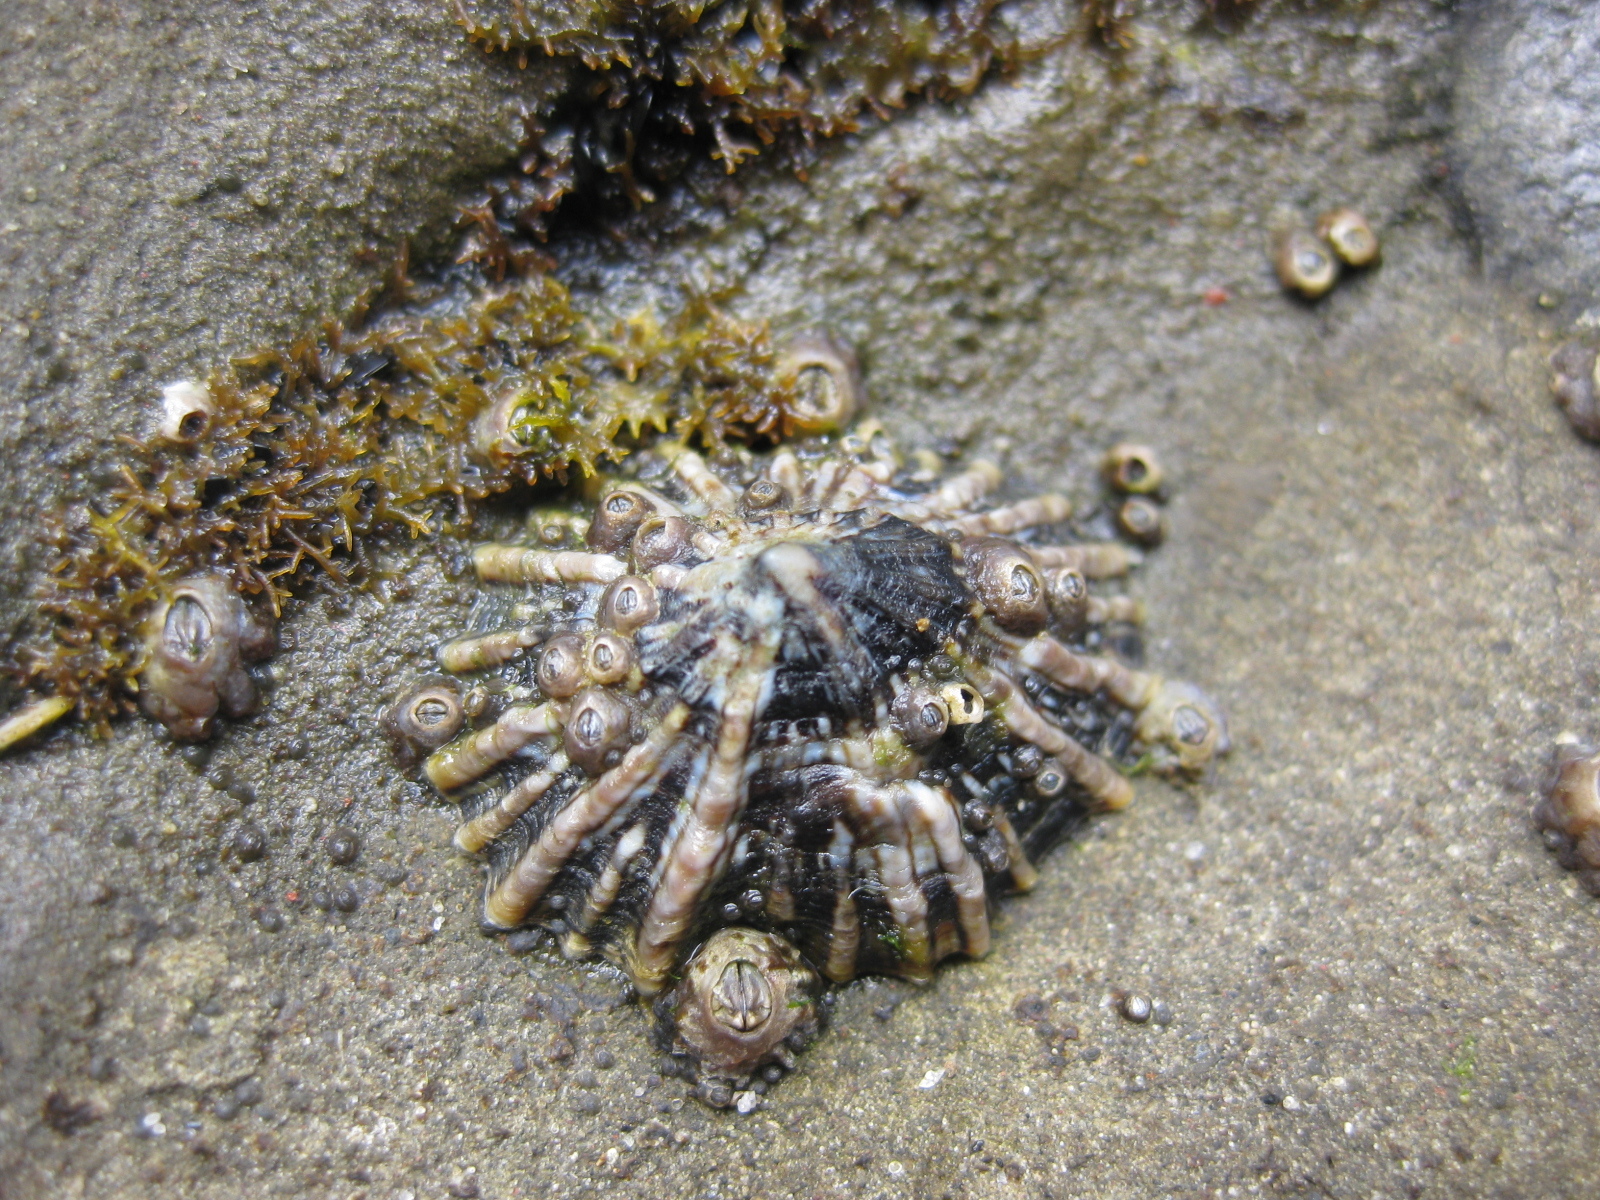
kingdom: Animalia
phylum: Mollusca
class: Gastropoda
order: Siphonariida
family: Siphonariidae
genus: Siphonaria
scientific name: Siphonaria australis
